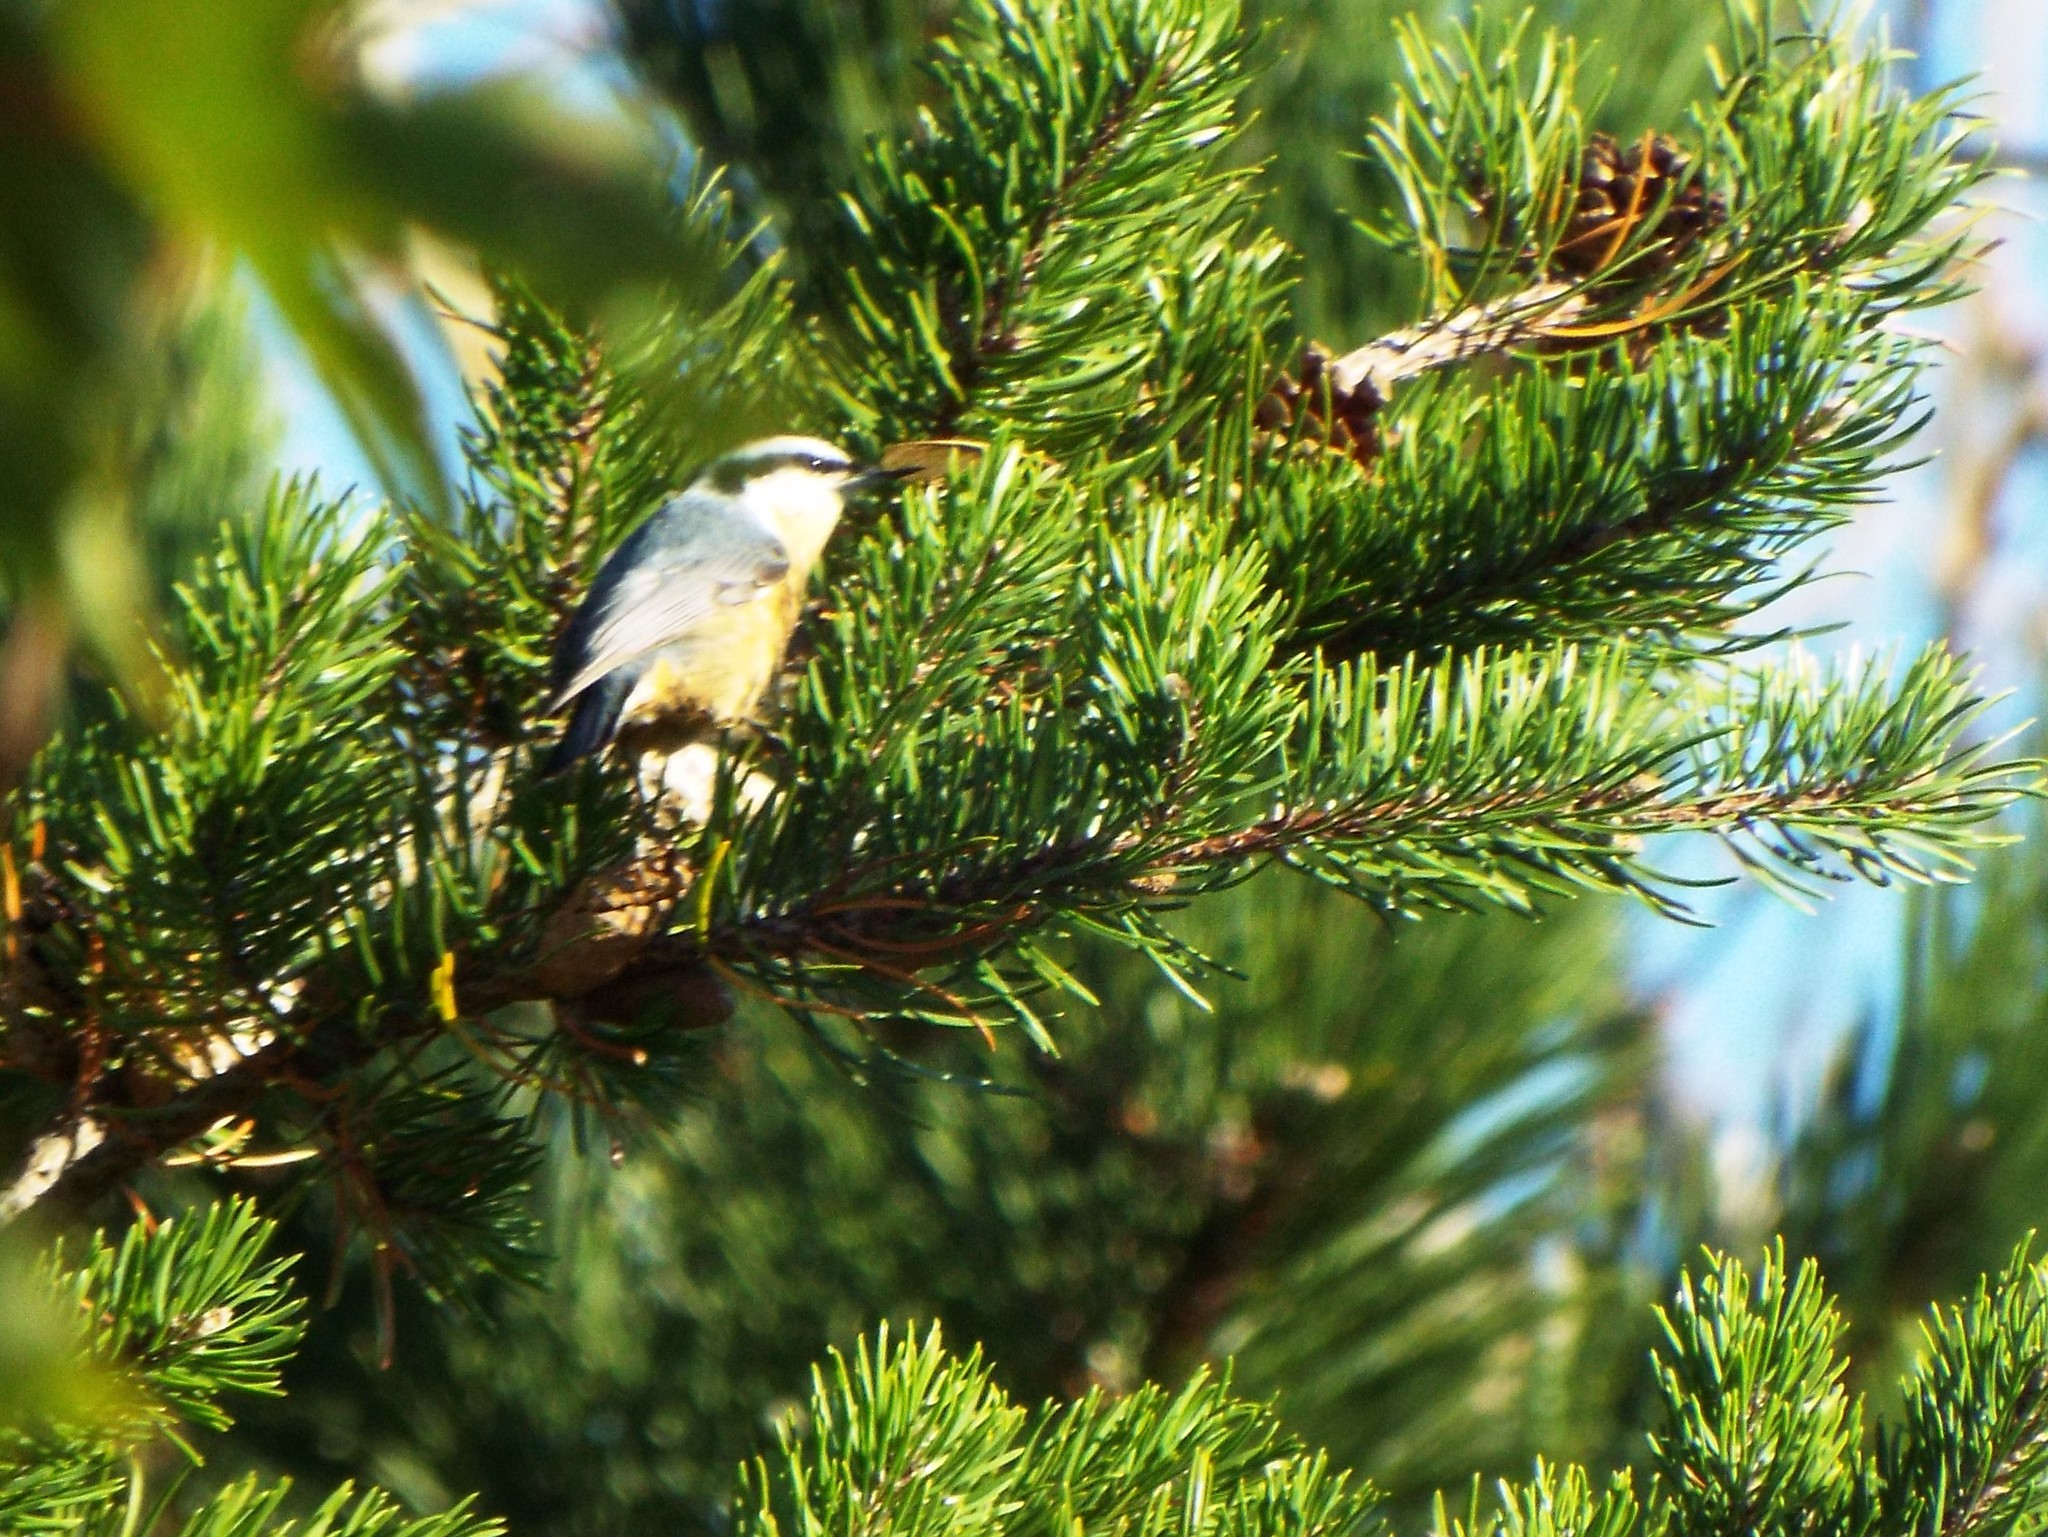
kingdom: Animalia
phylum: Chordata
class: Aves
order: Passeriformes
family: Sittidae
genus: Sitta
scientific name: Sitta canadensis
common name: Red-breasted nuthatch
